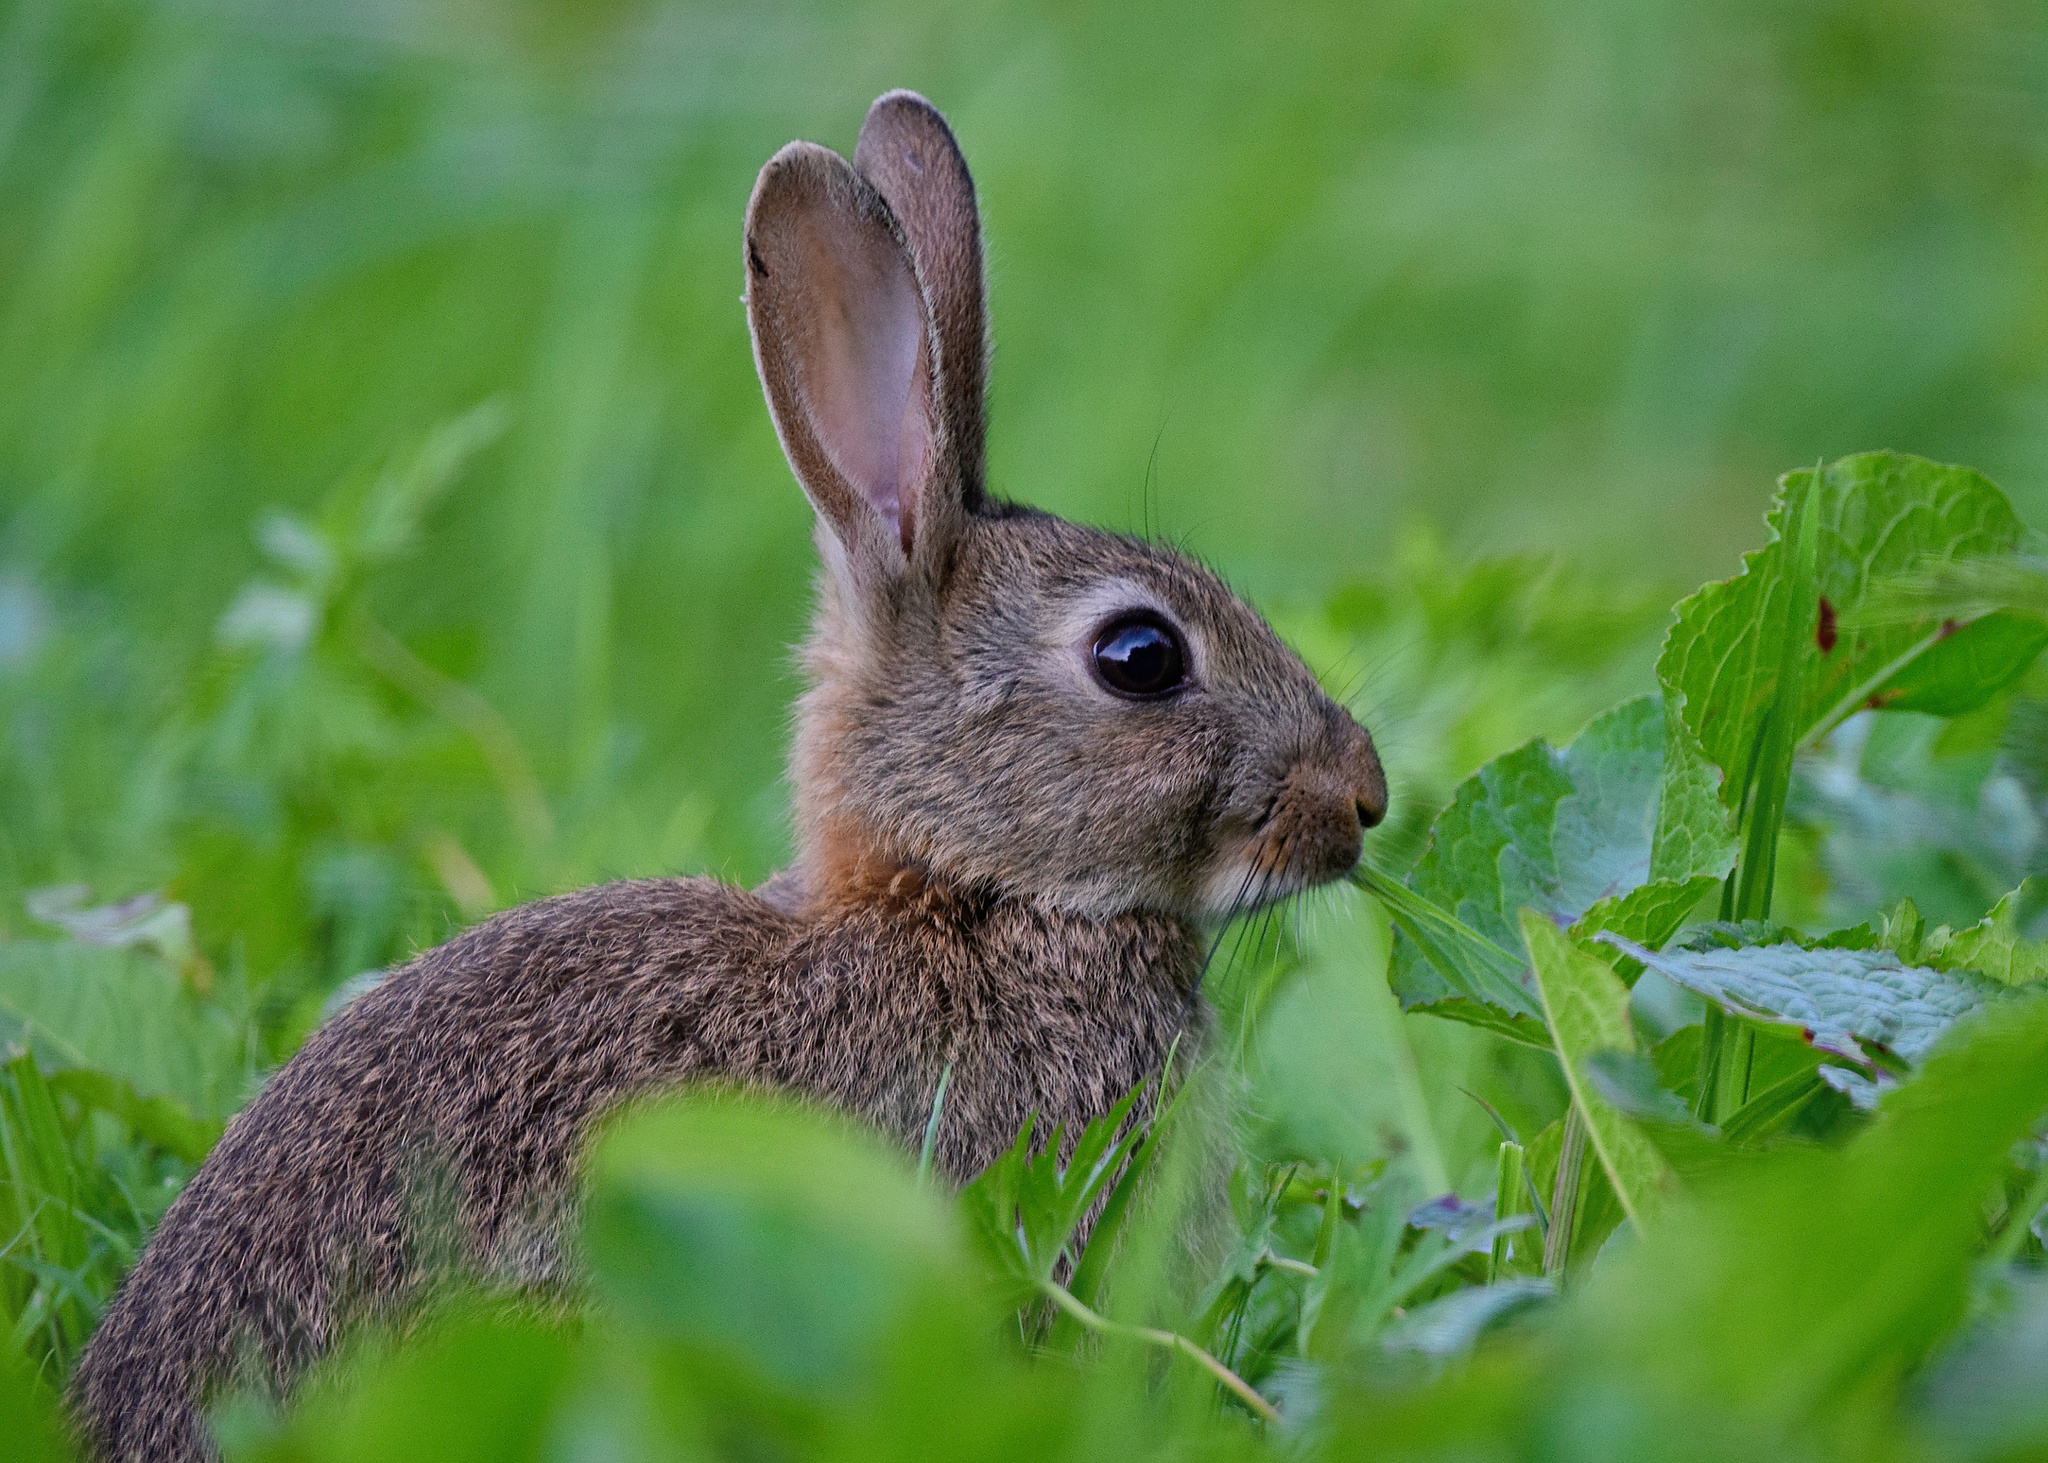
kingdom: Animalia
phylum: Chordata
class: Mammalia
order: Lagomorpha
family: Leporidae
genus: Oryctolagus
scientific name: Oryctolagus cuniculus
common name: European rabbit
